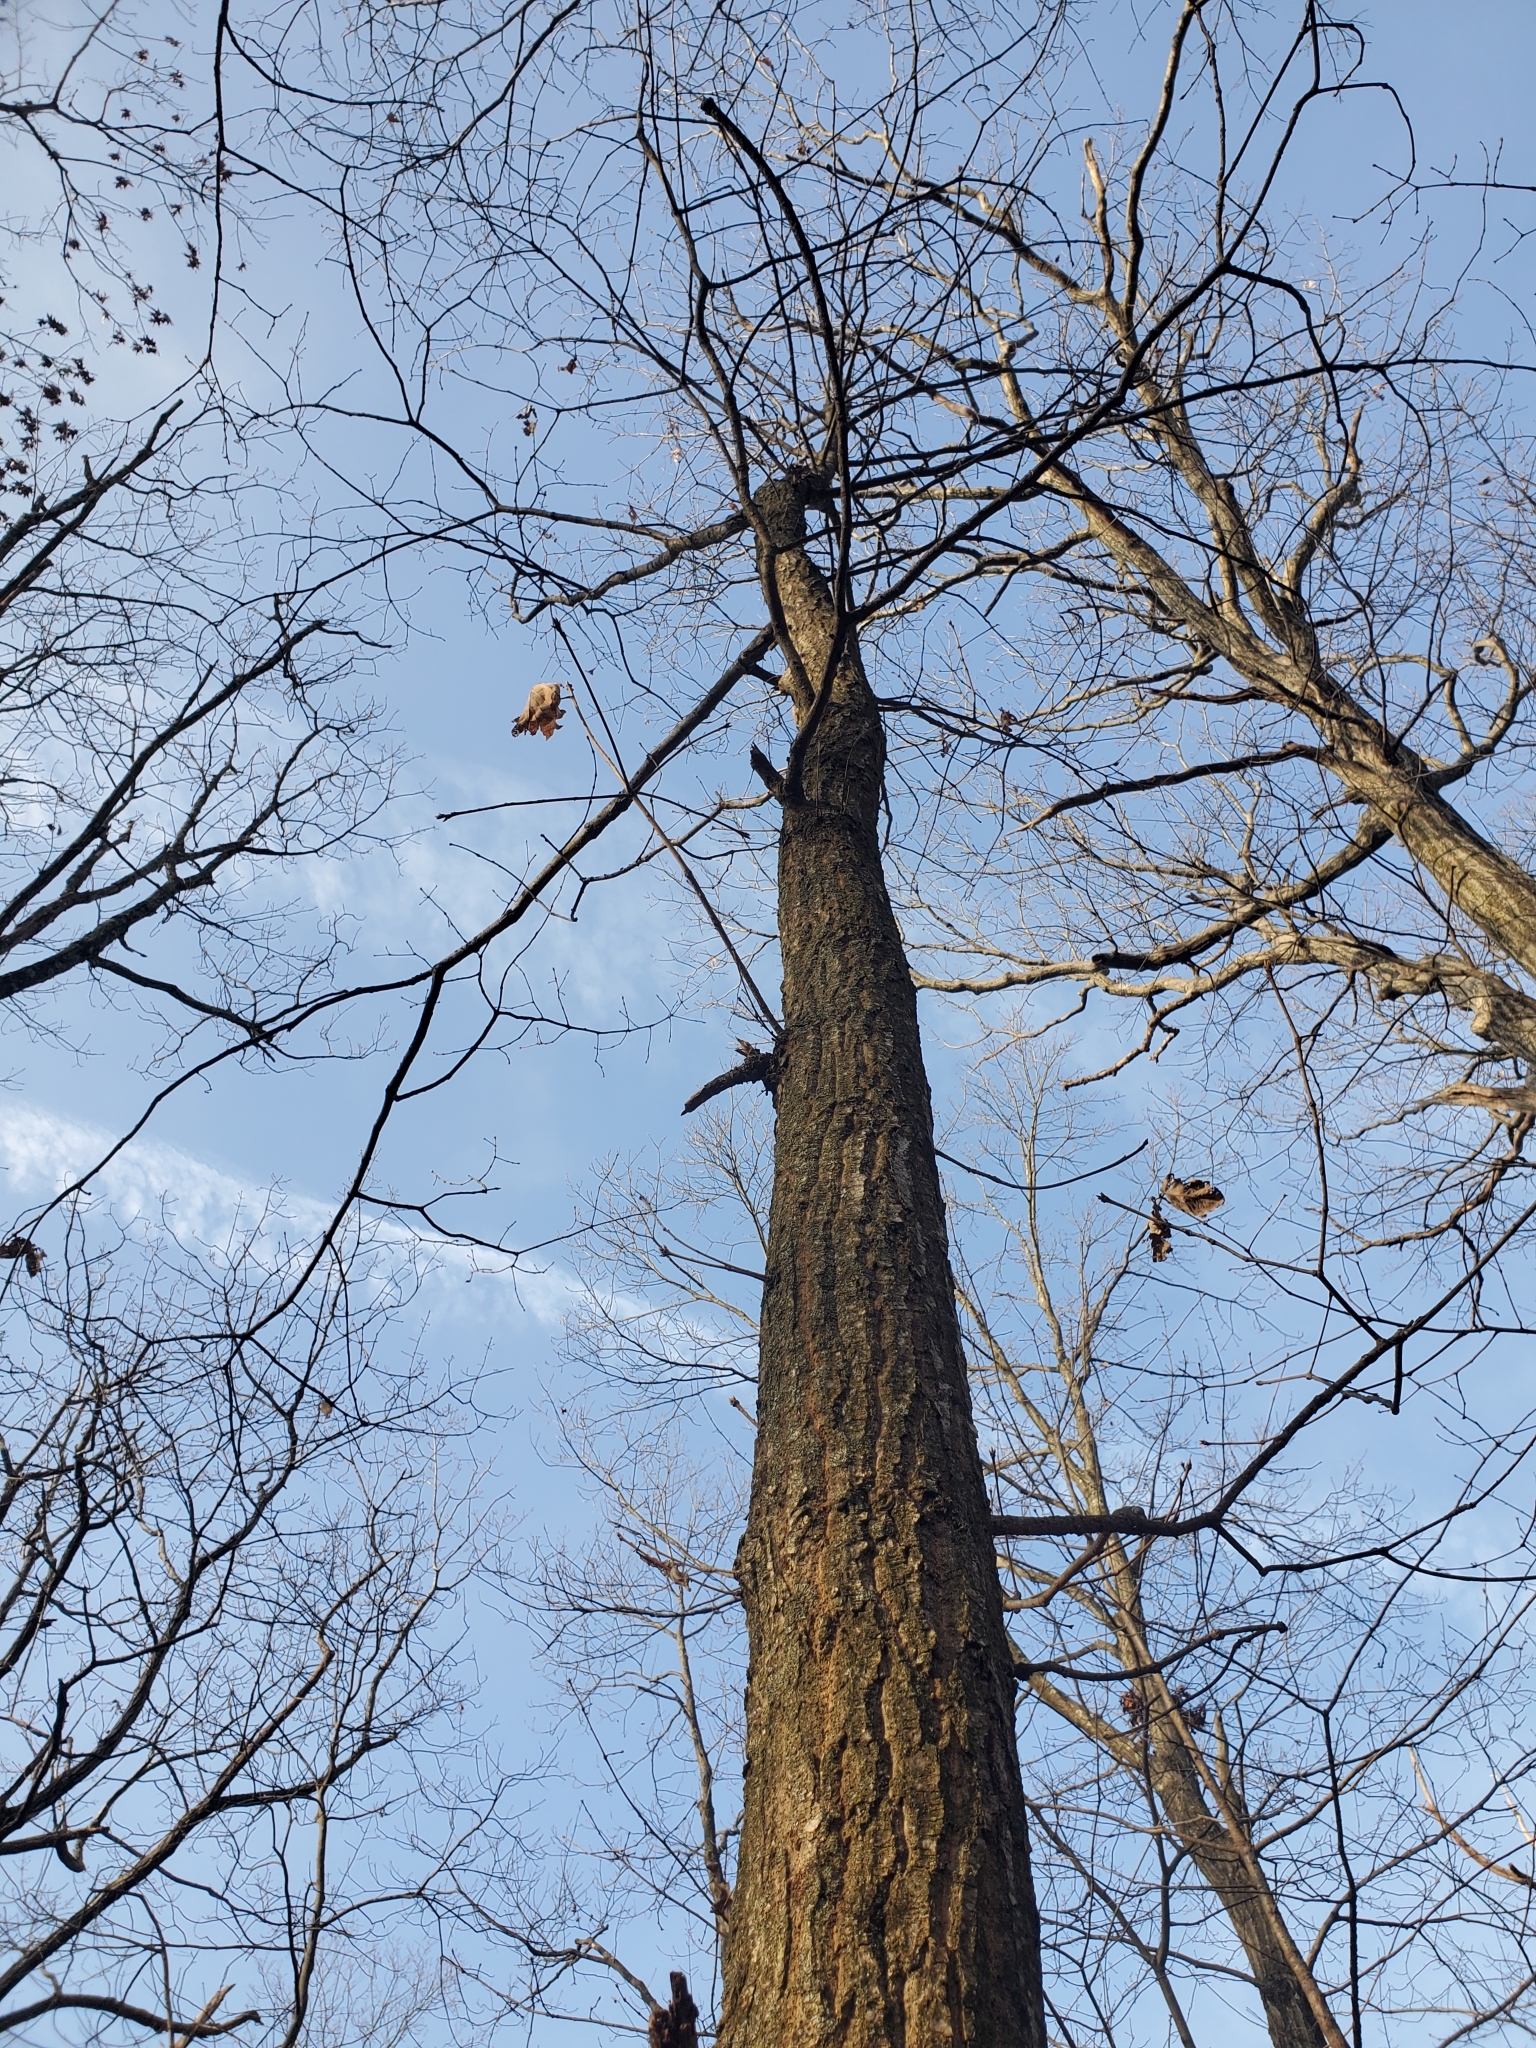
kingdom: Plantae
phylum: Tracheophyta
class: Magnoliopsida
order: Fagales
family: Fagaceae
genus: Quercus
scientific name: Quercus montana
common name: Chestnut oak
